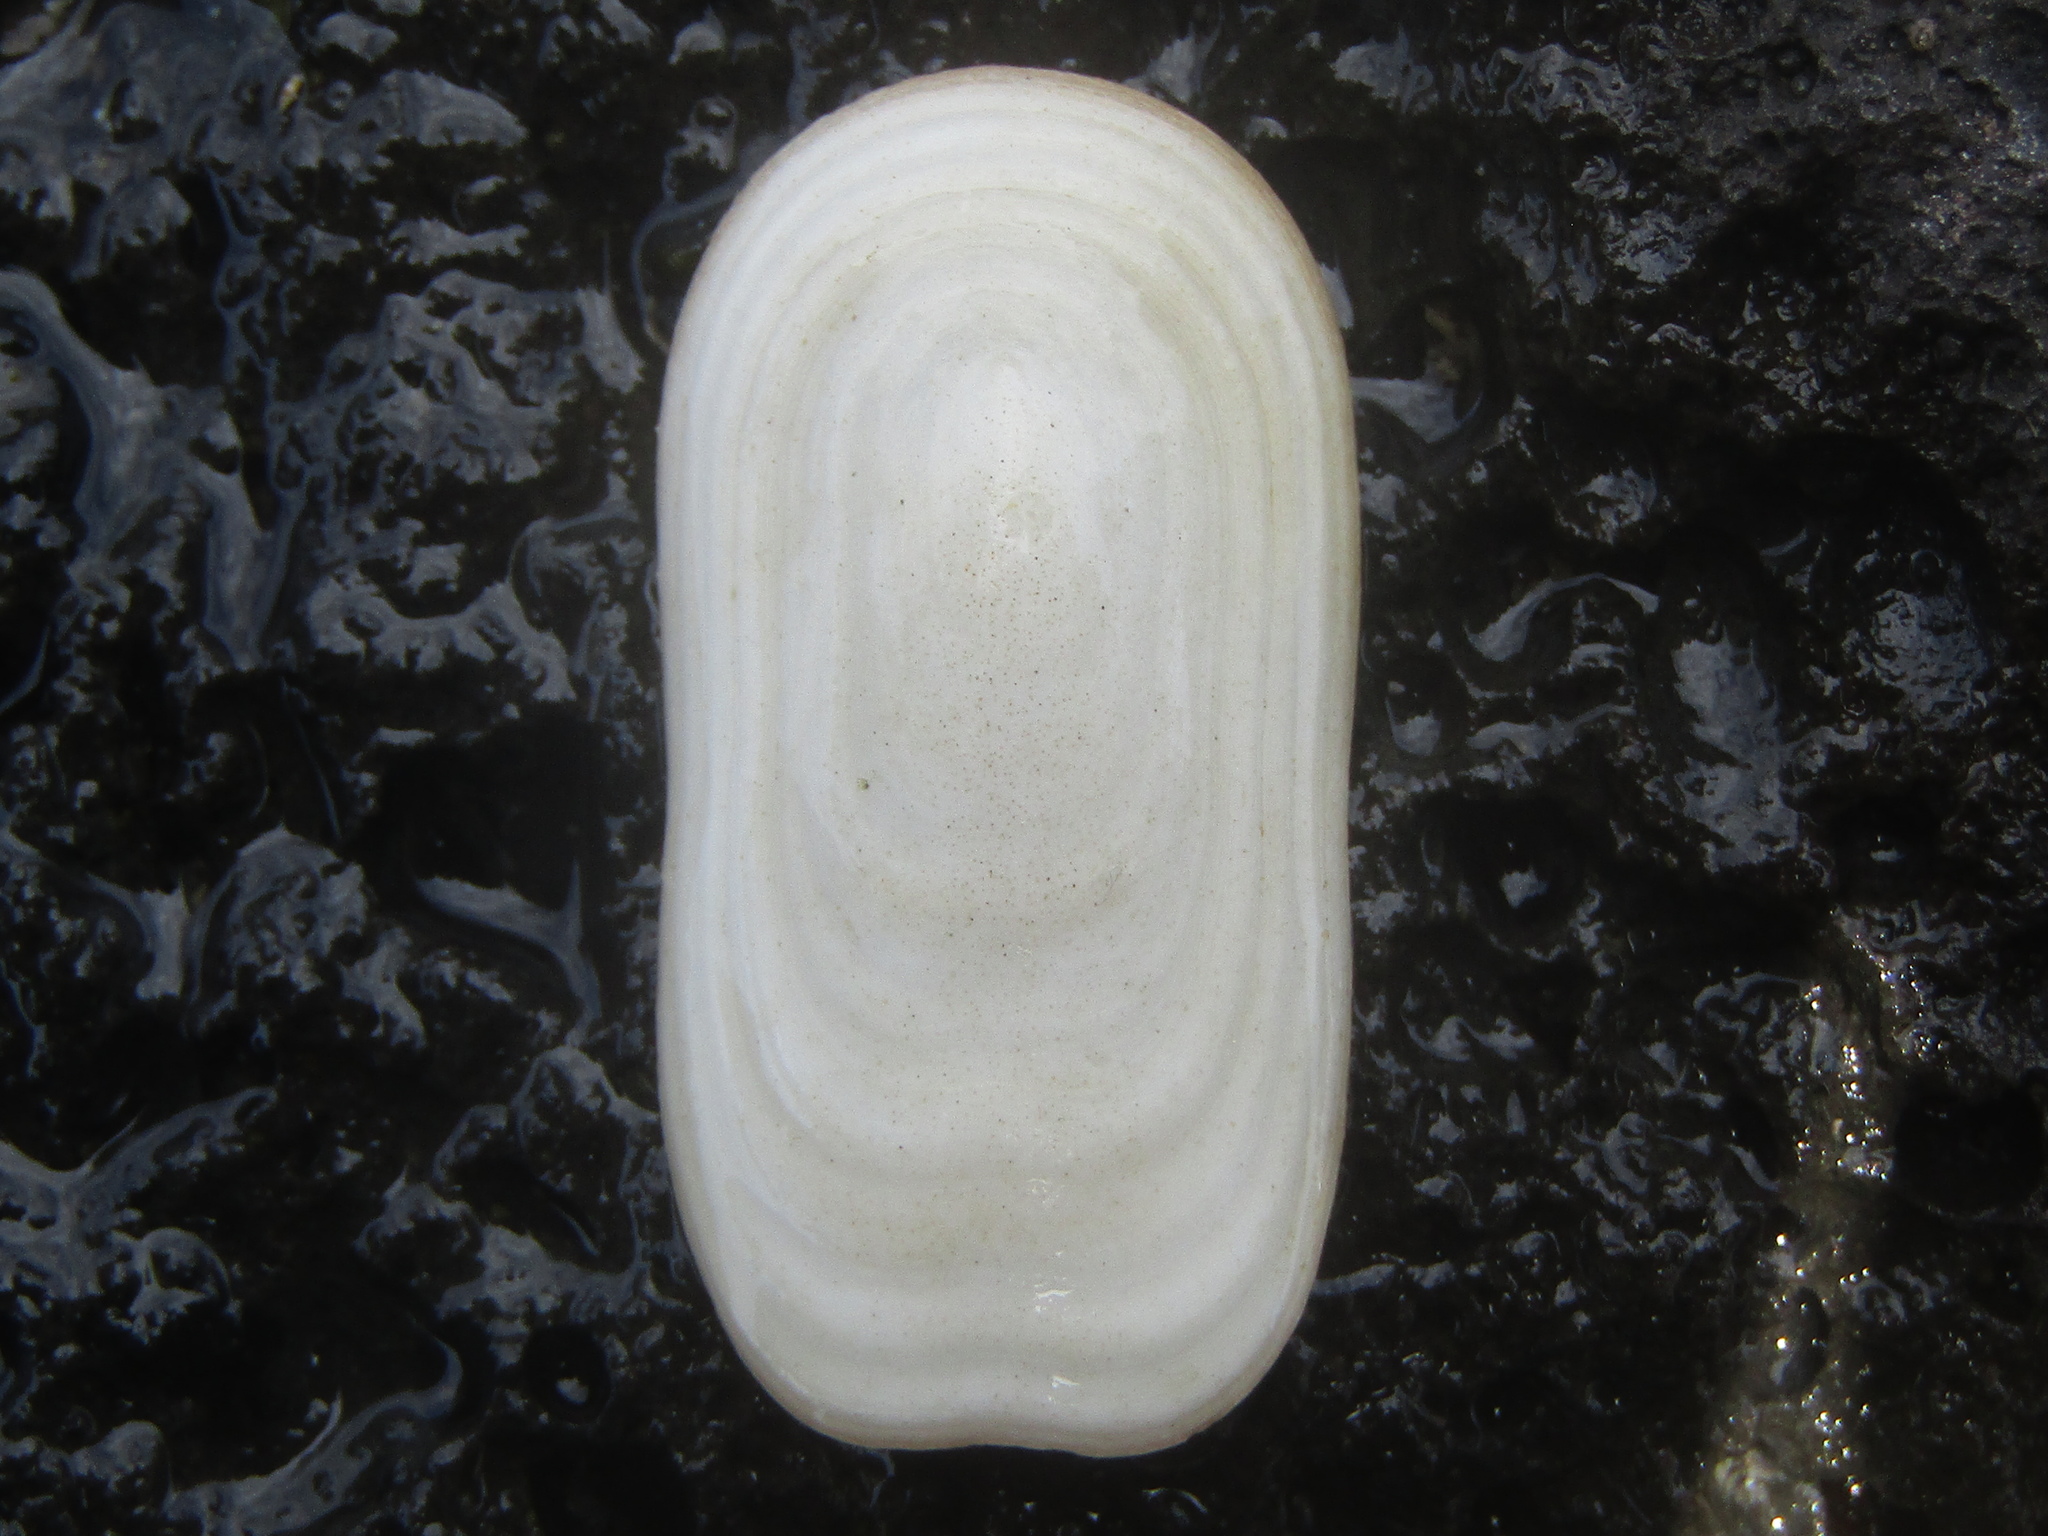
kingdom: Animalia
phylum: Mollusca
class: Gastropoda
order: Lepetellida
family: Fissurellidae
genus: Scutus
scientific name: Scutus breviculus
